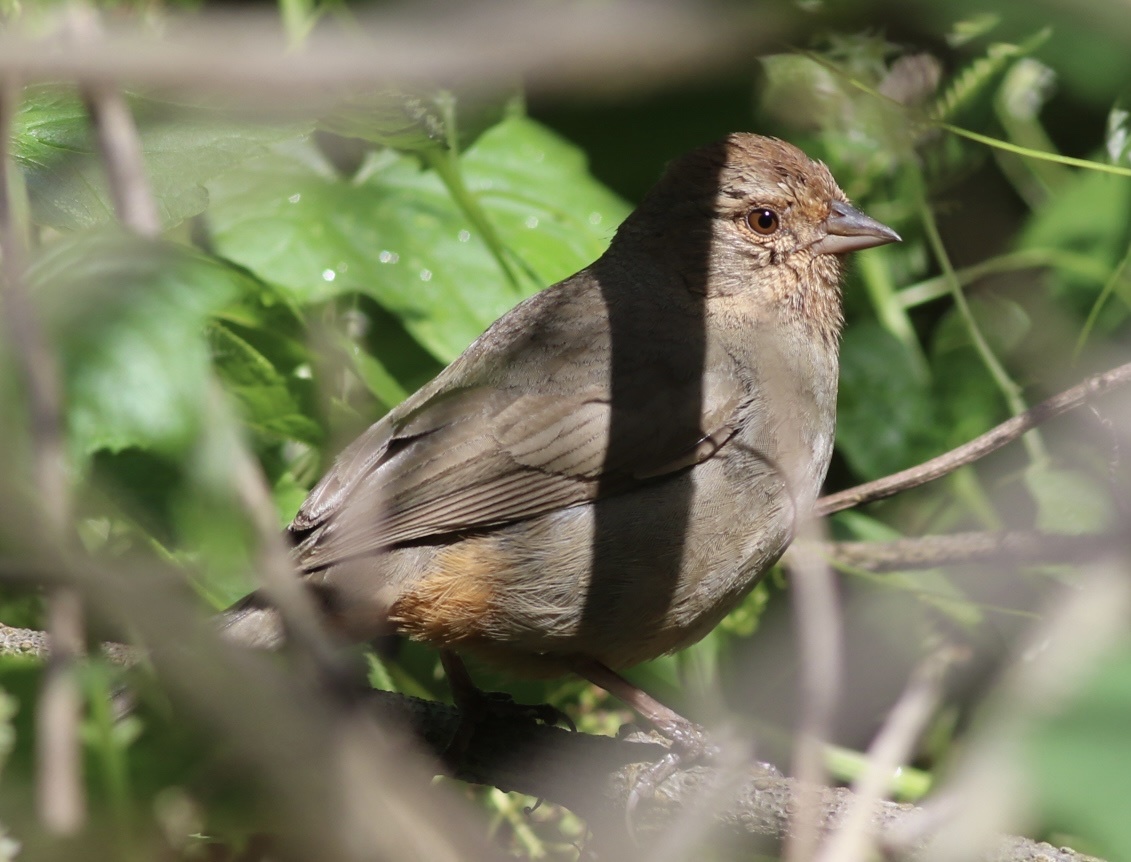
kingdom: Animalia
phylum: Chordata
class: Aves
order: Passeriformes
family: Passerellidae
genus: Melozone
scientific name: Melozone crissalis
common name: California towhee
